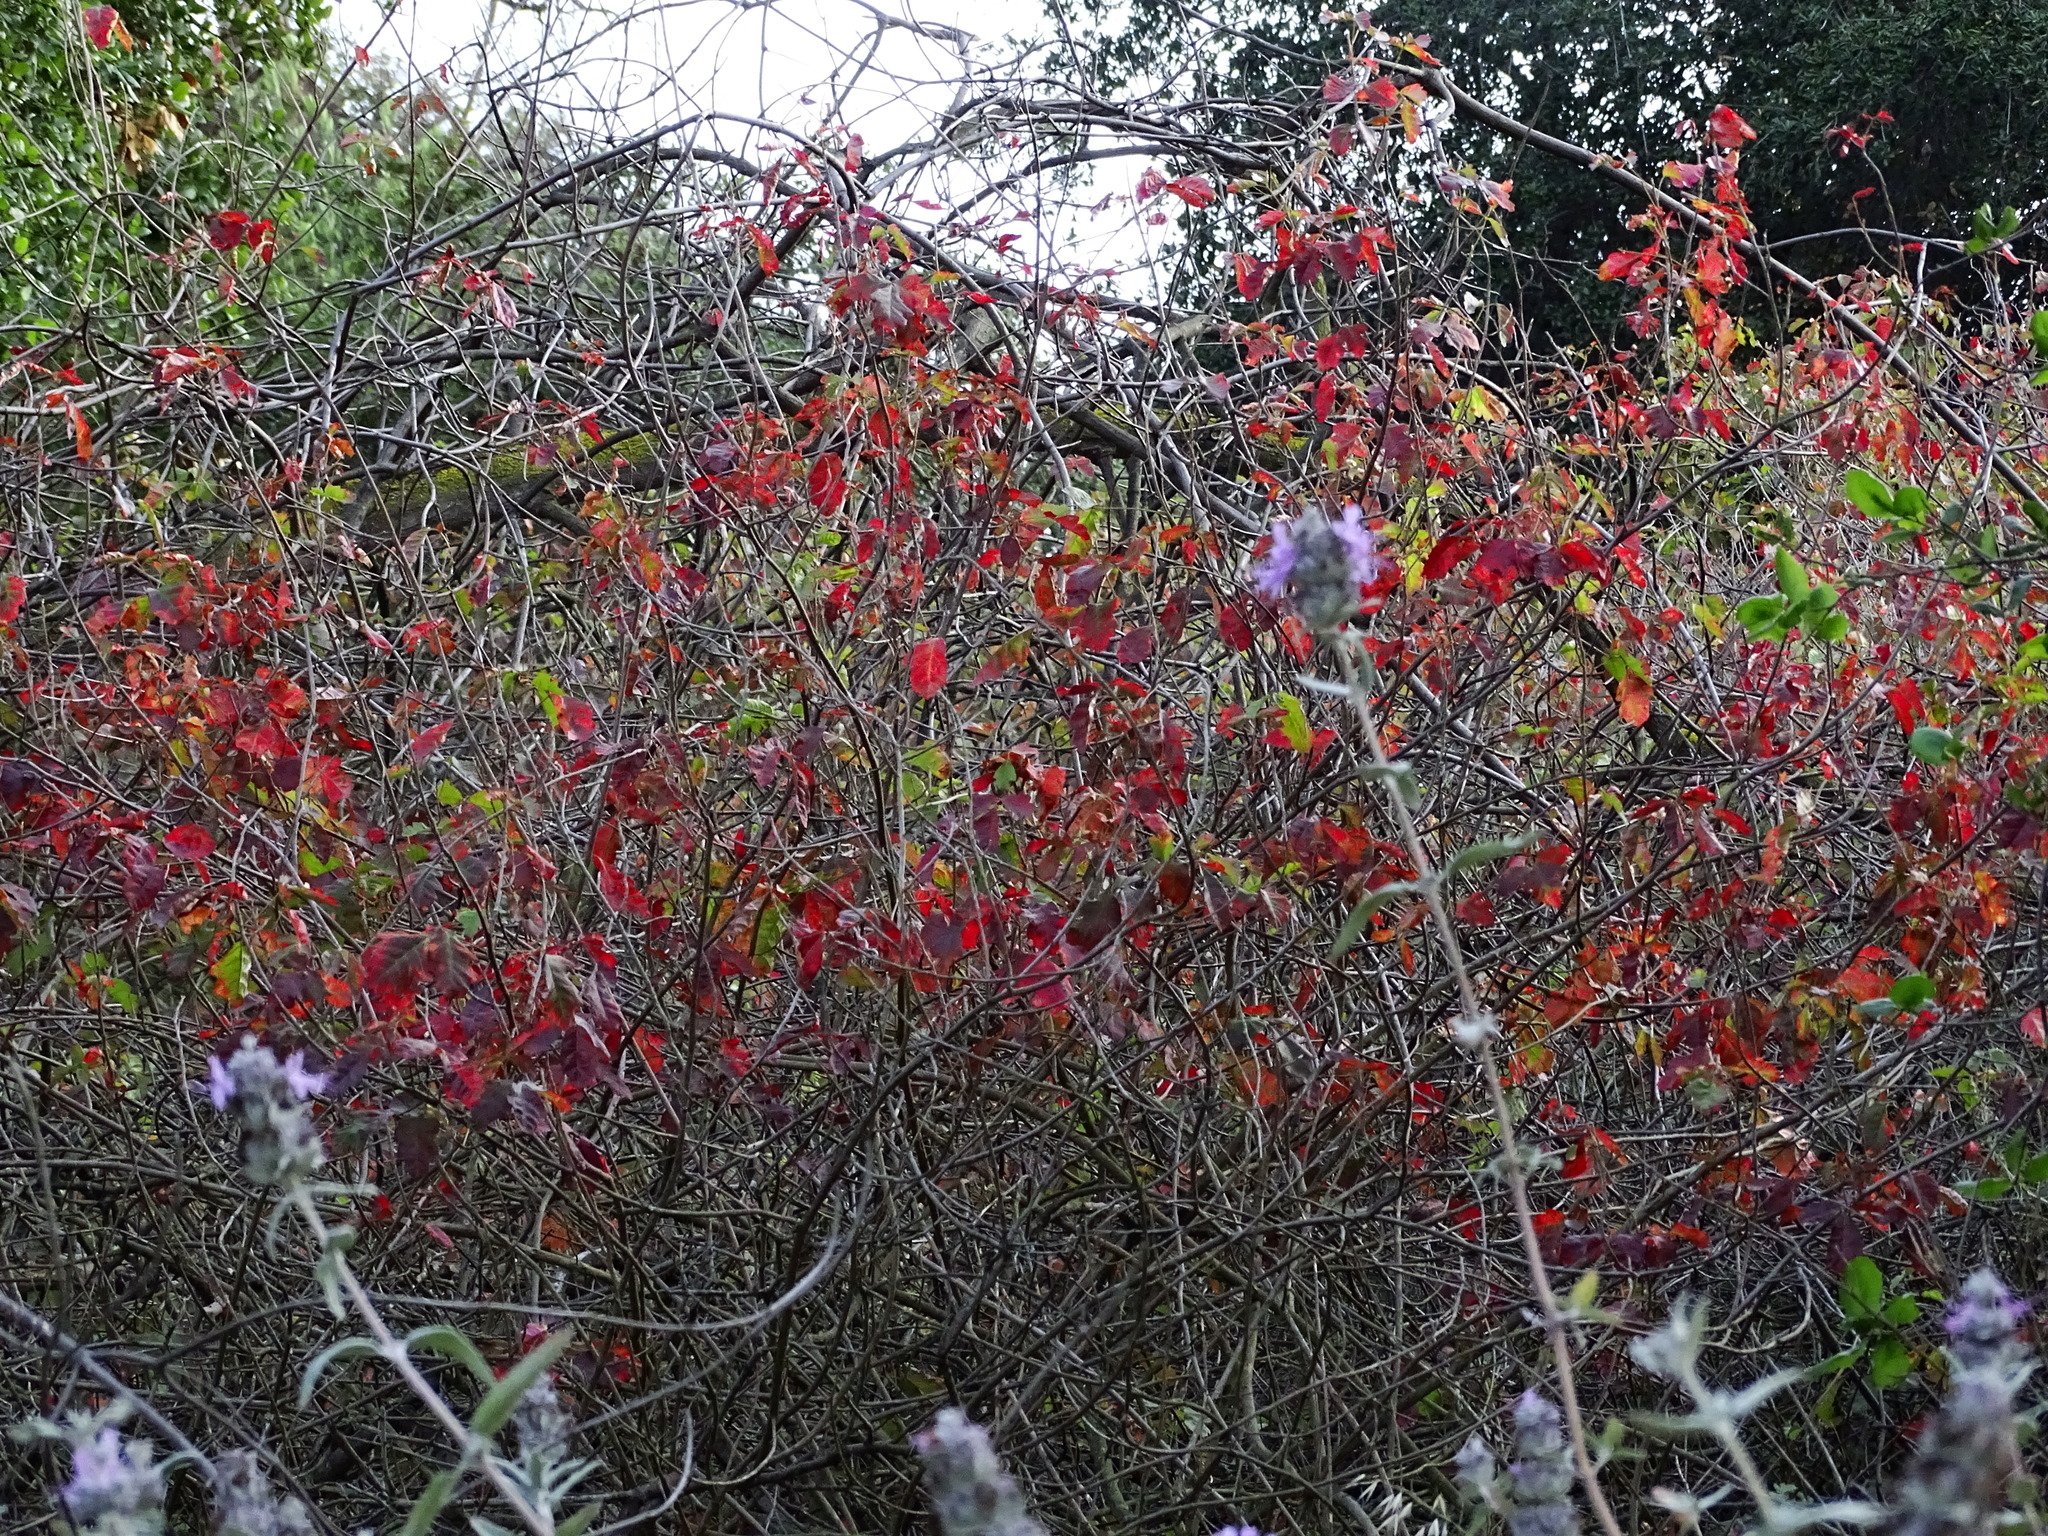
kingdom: Plantae
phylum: Tracheophyta
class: Magnoliopsida
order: Sapindales
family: Anacardiaceae
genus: Toxicodendron
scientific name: Toxicodendron diversilobum
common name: Pacific poison-oak
